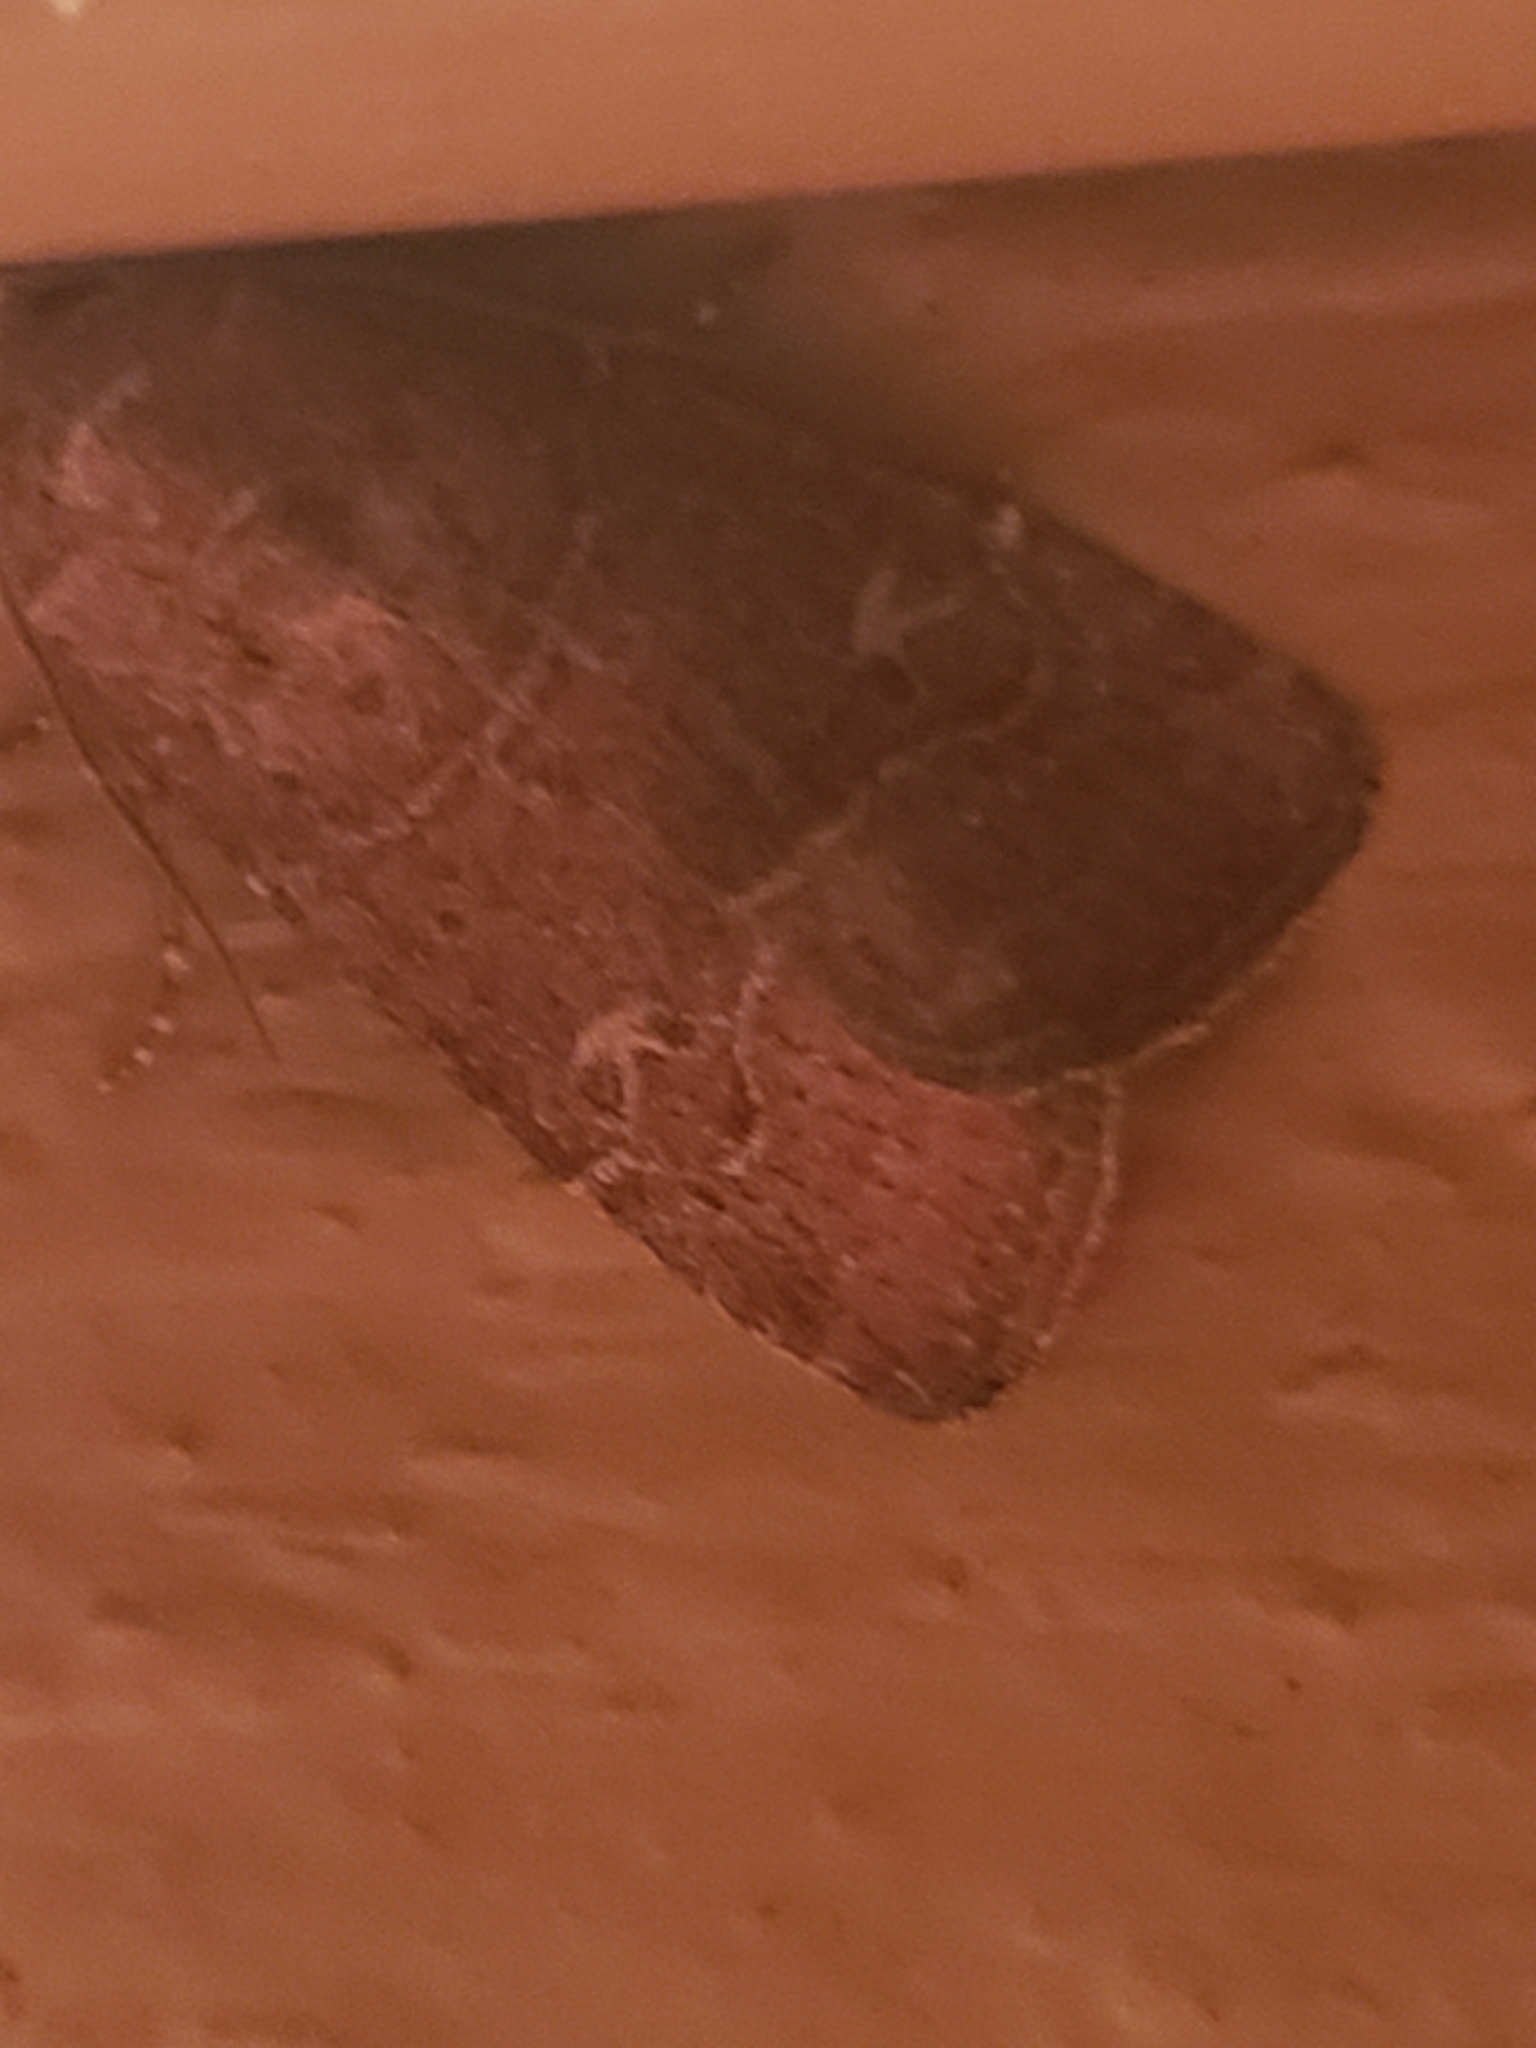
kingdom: Animalia
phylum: Arthropoda
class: Insecta
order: Lepidoptera
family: Noctuidae
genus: Elaphria
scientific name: Elaphria grata
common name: Grateful midget moth
